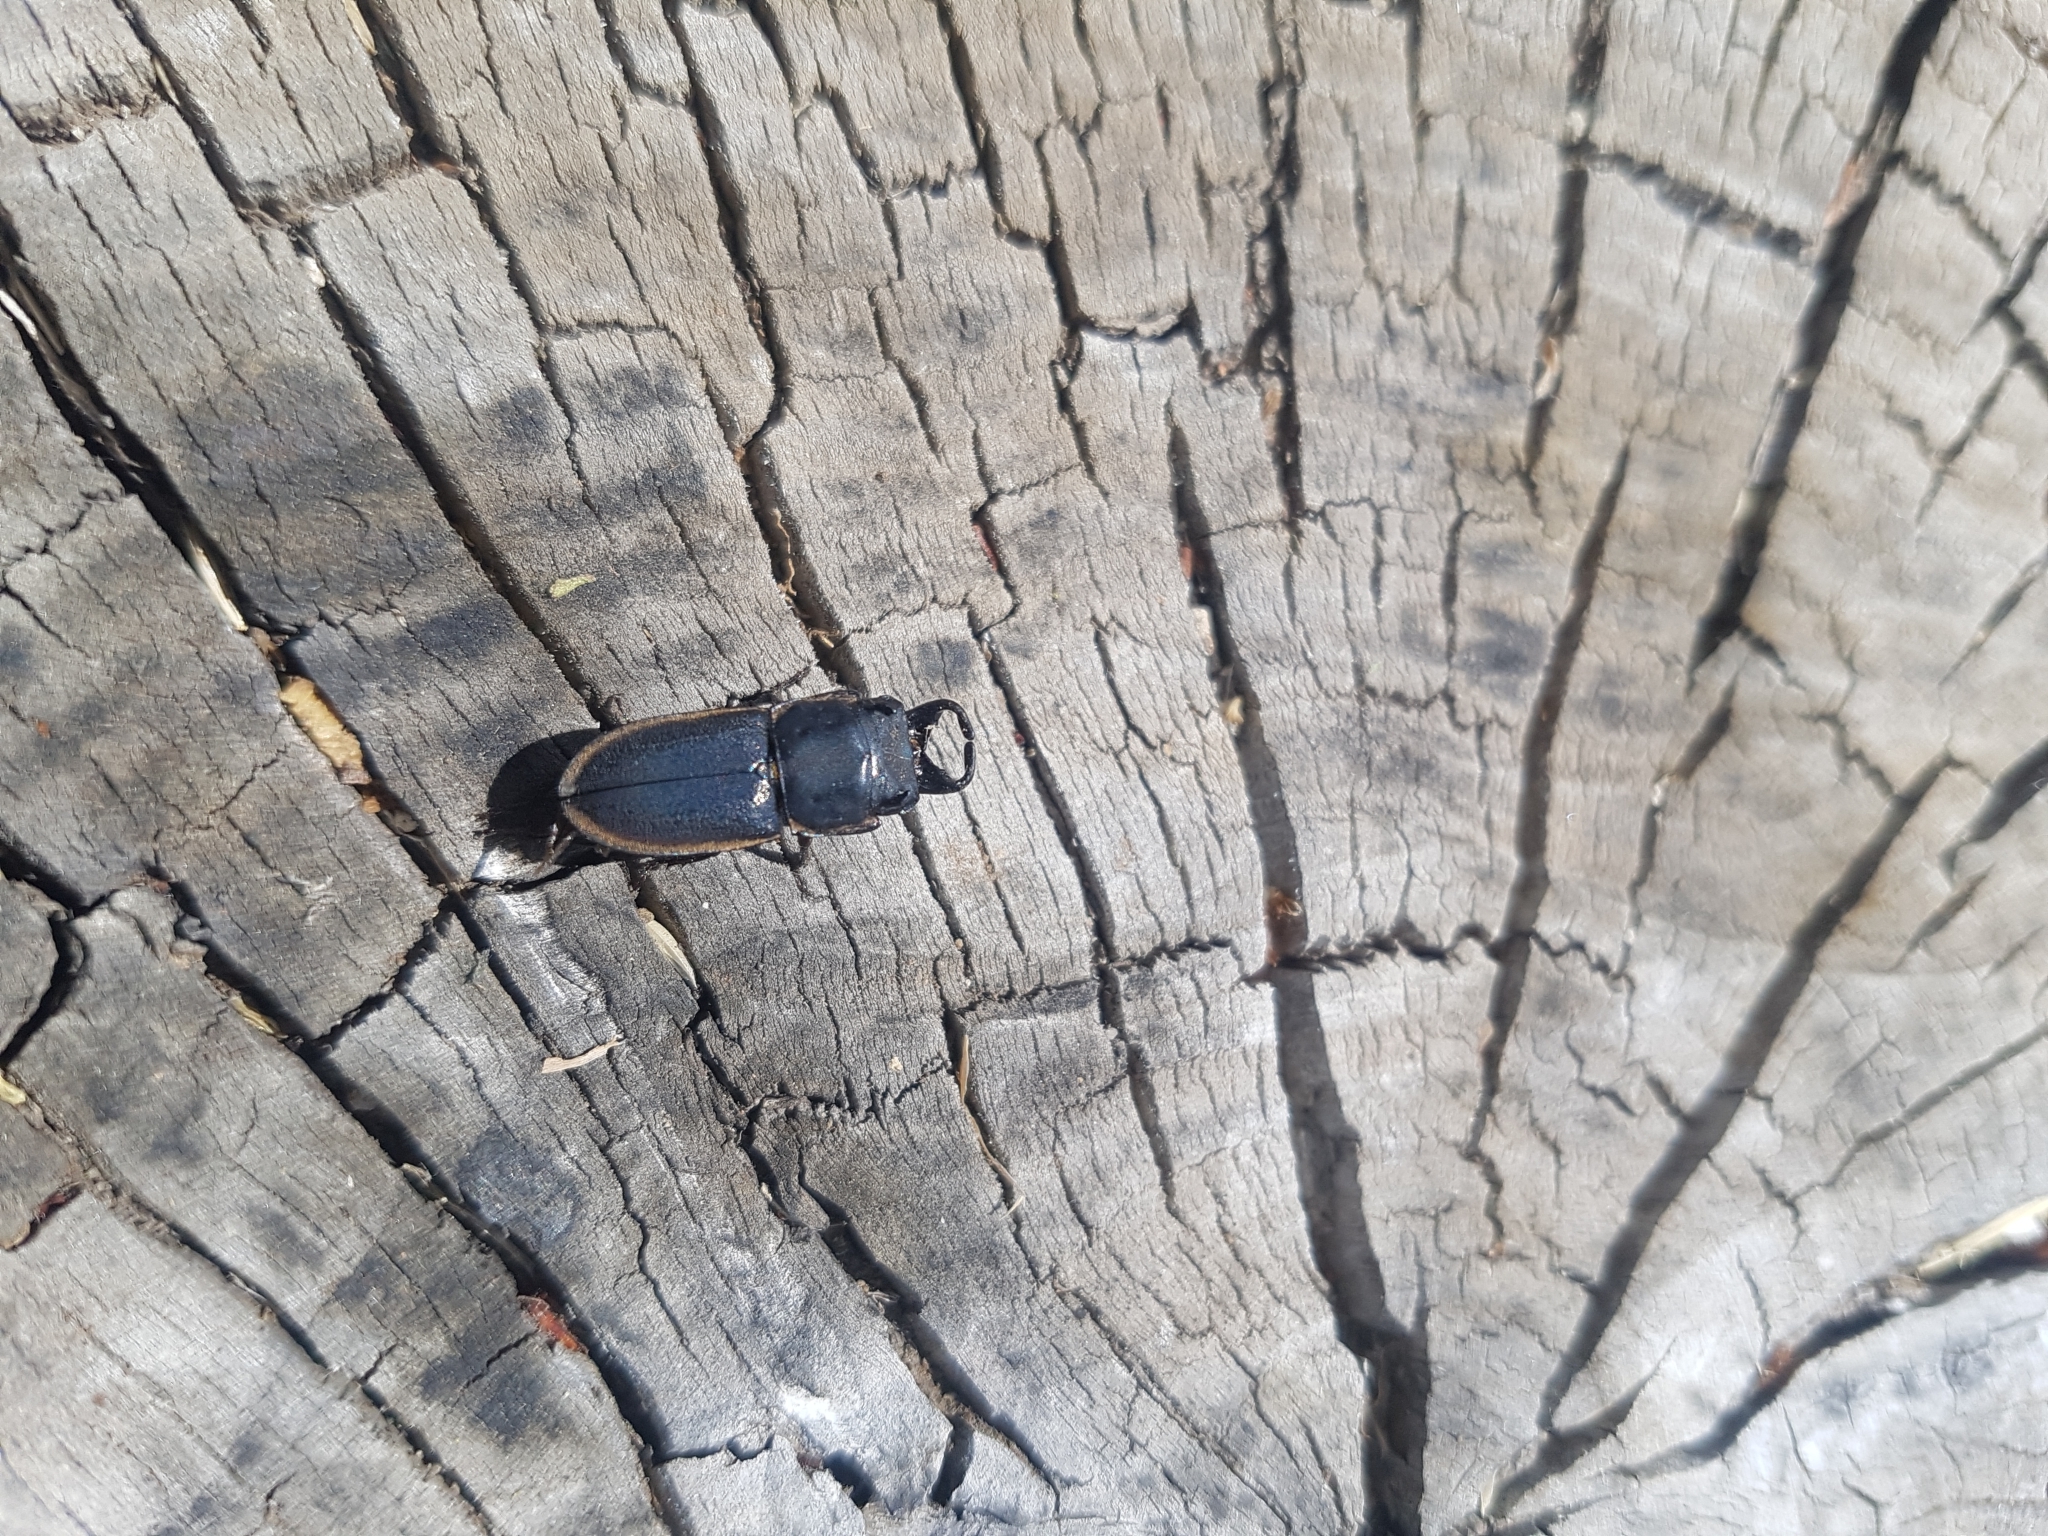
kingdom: Animalia
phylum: Arthropoda
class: Insecta
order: Coleoptera
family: Lucanidae
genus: Pycnosiphorus
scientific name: Pycnosiphorus lessonii
